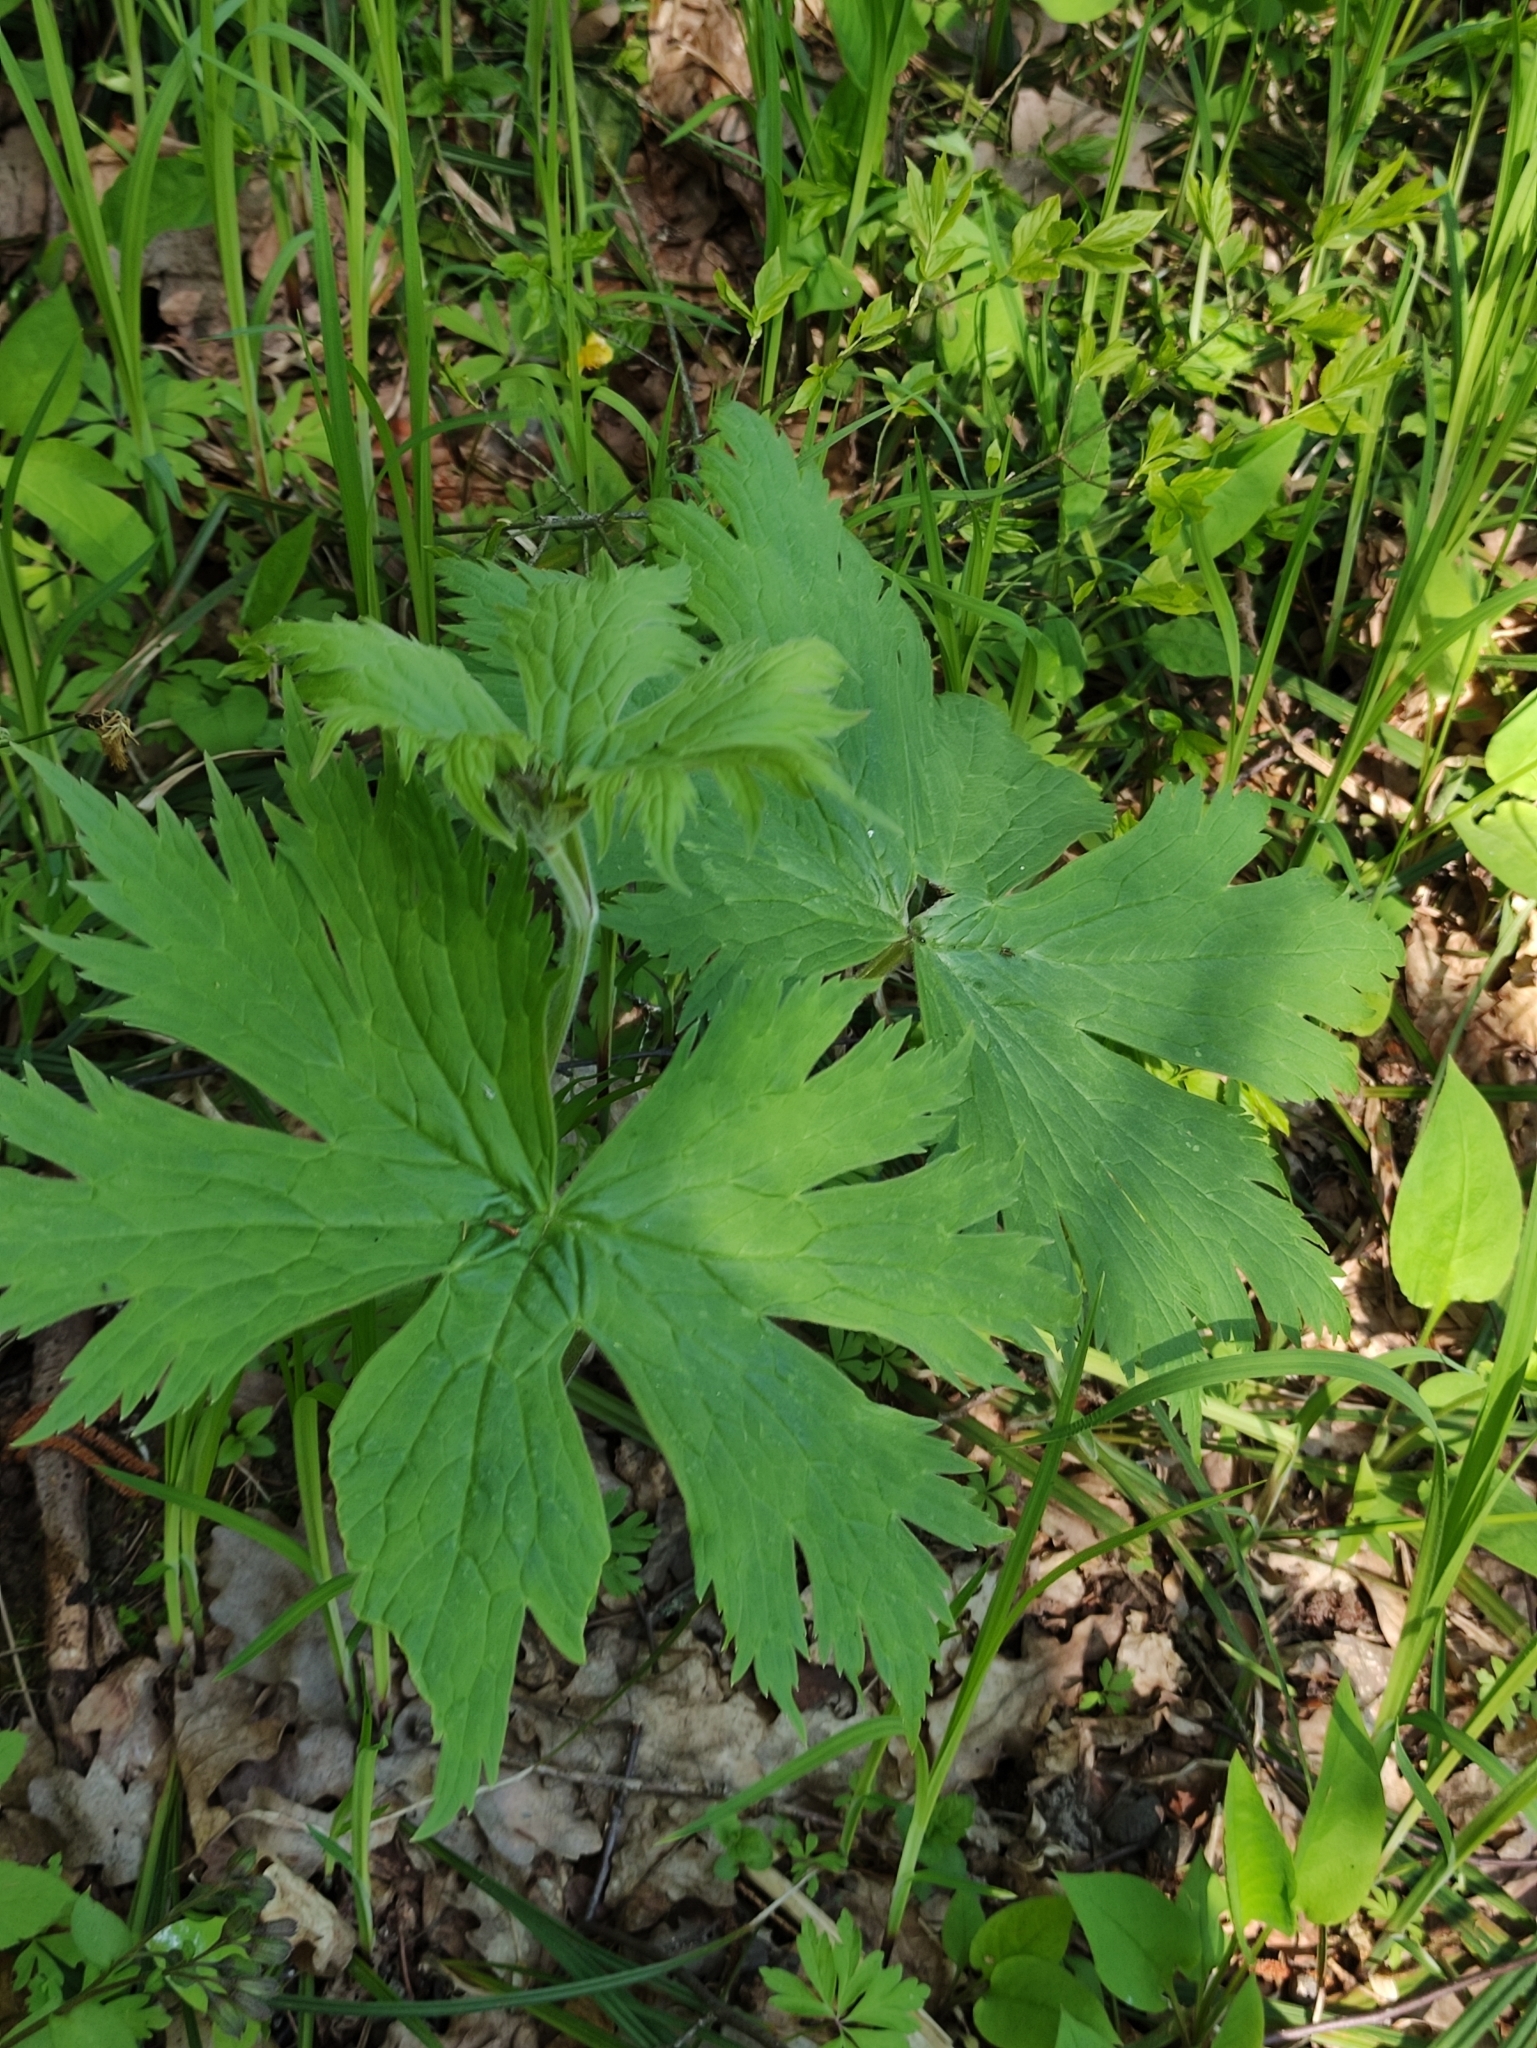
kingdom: Plantae
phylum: Tracheophyta
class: Magnoliopsida
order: Ranunculales
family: Ranunculaceae
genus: Aconitum
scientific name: Aconitum septentrionale
